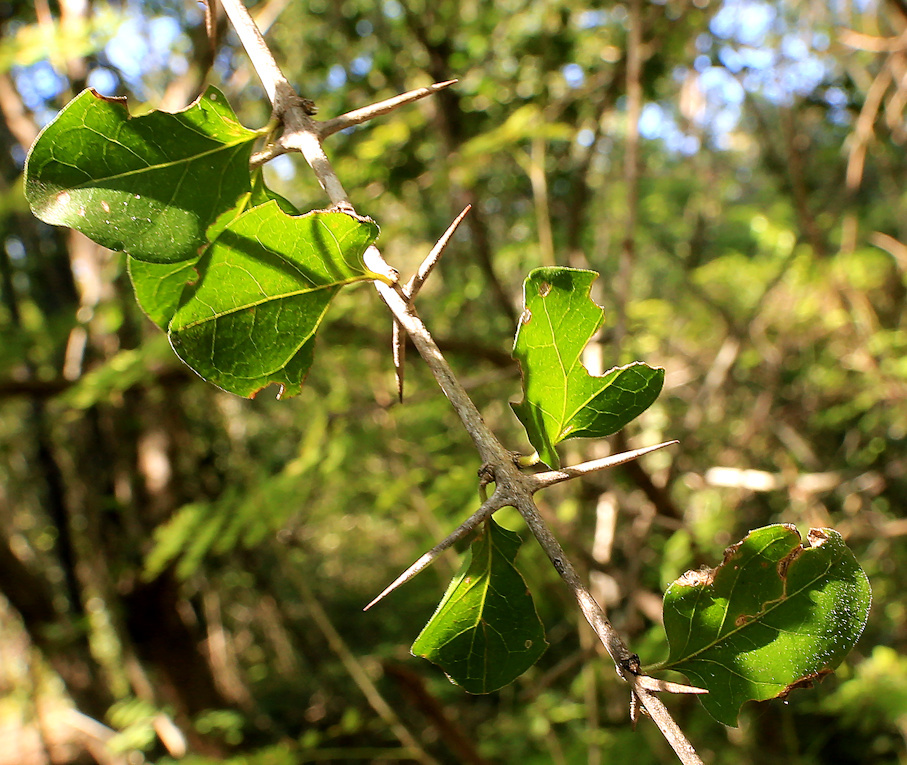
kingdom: Plantae
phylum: Tracheophyta
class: Magnoliopsida
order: Gentianales
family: Rubiaceae
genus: Plectroniella
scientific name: Plectroniella armata
